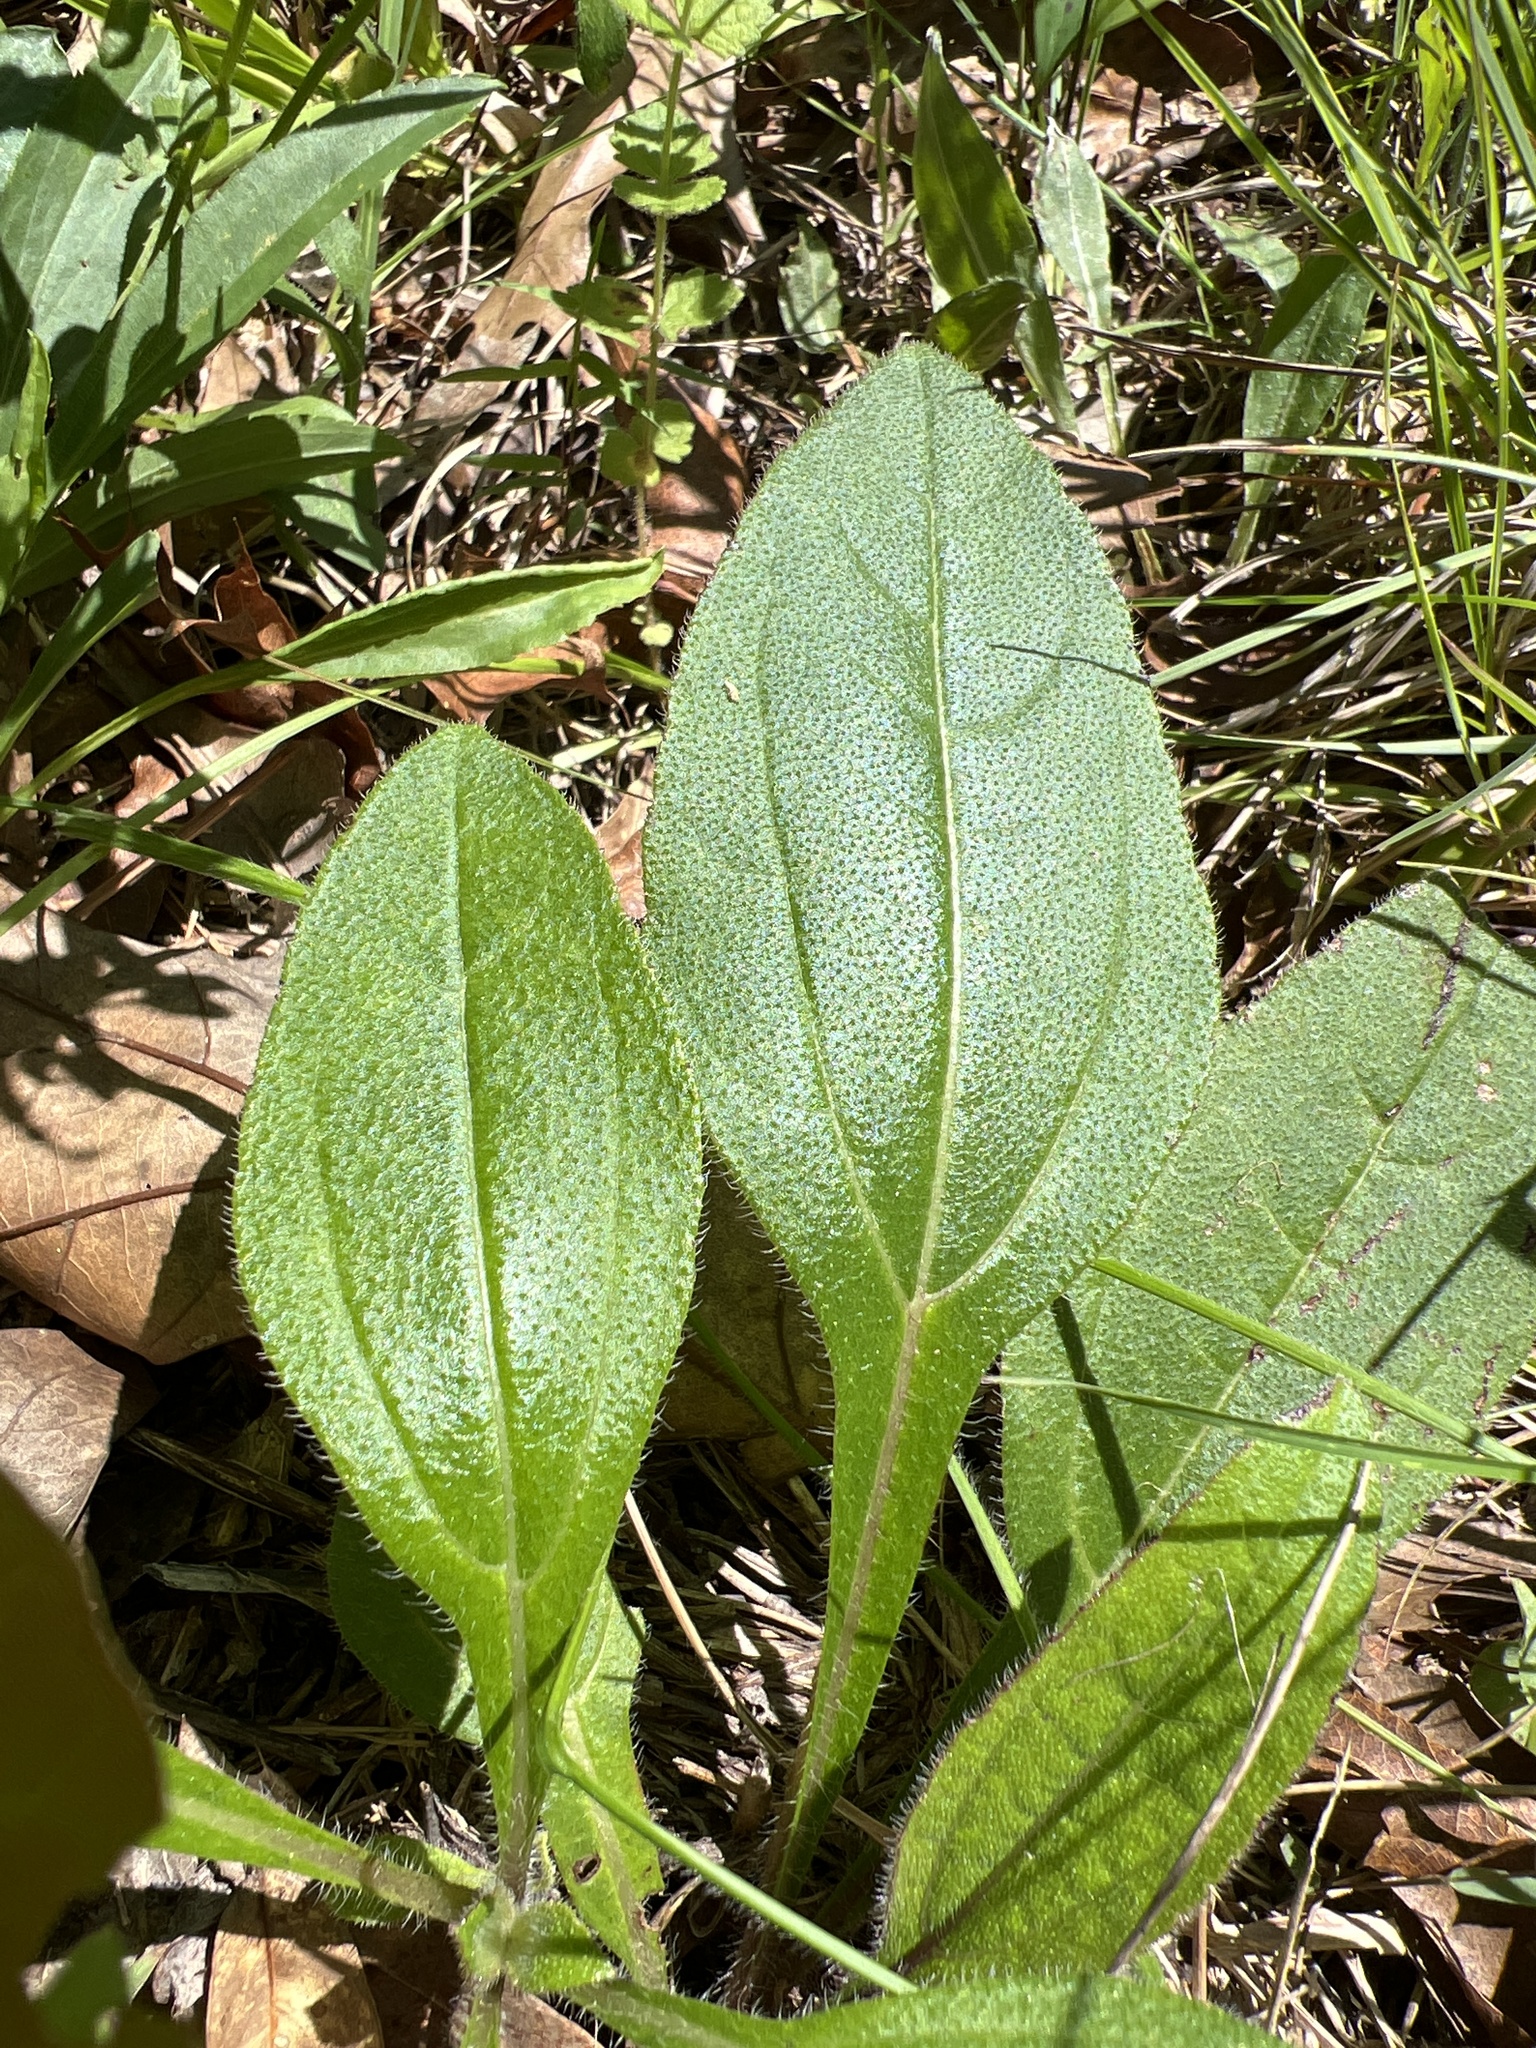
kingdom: Plantae
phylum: Tracheophyta
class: Magnoliopsida
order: Asterales
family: Asteraceae
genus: Helianthus
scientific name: Helianthus atrorubens
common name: Dark-eyed sunflower
